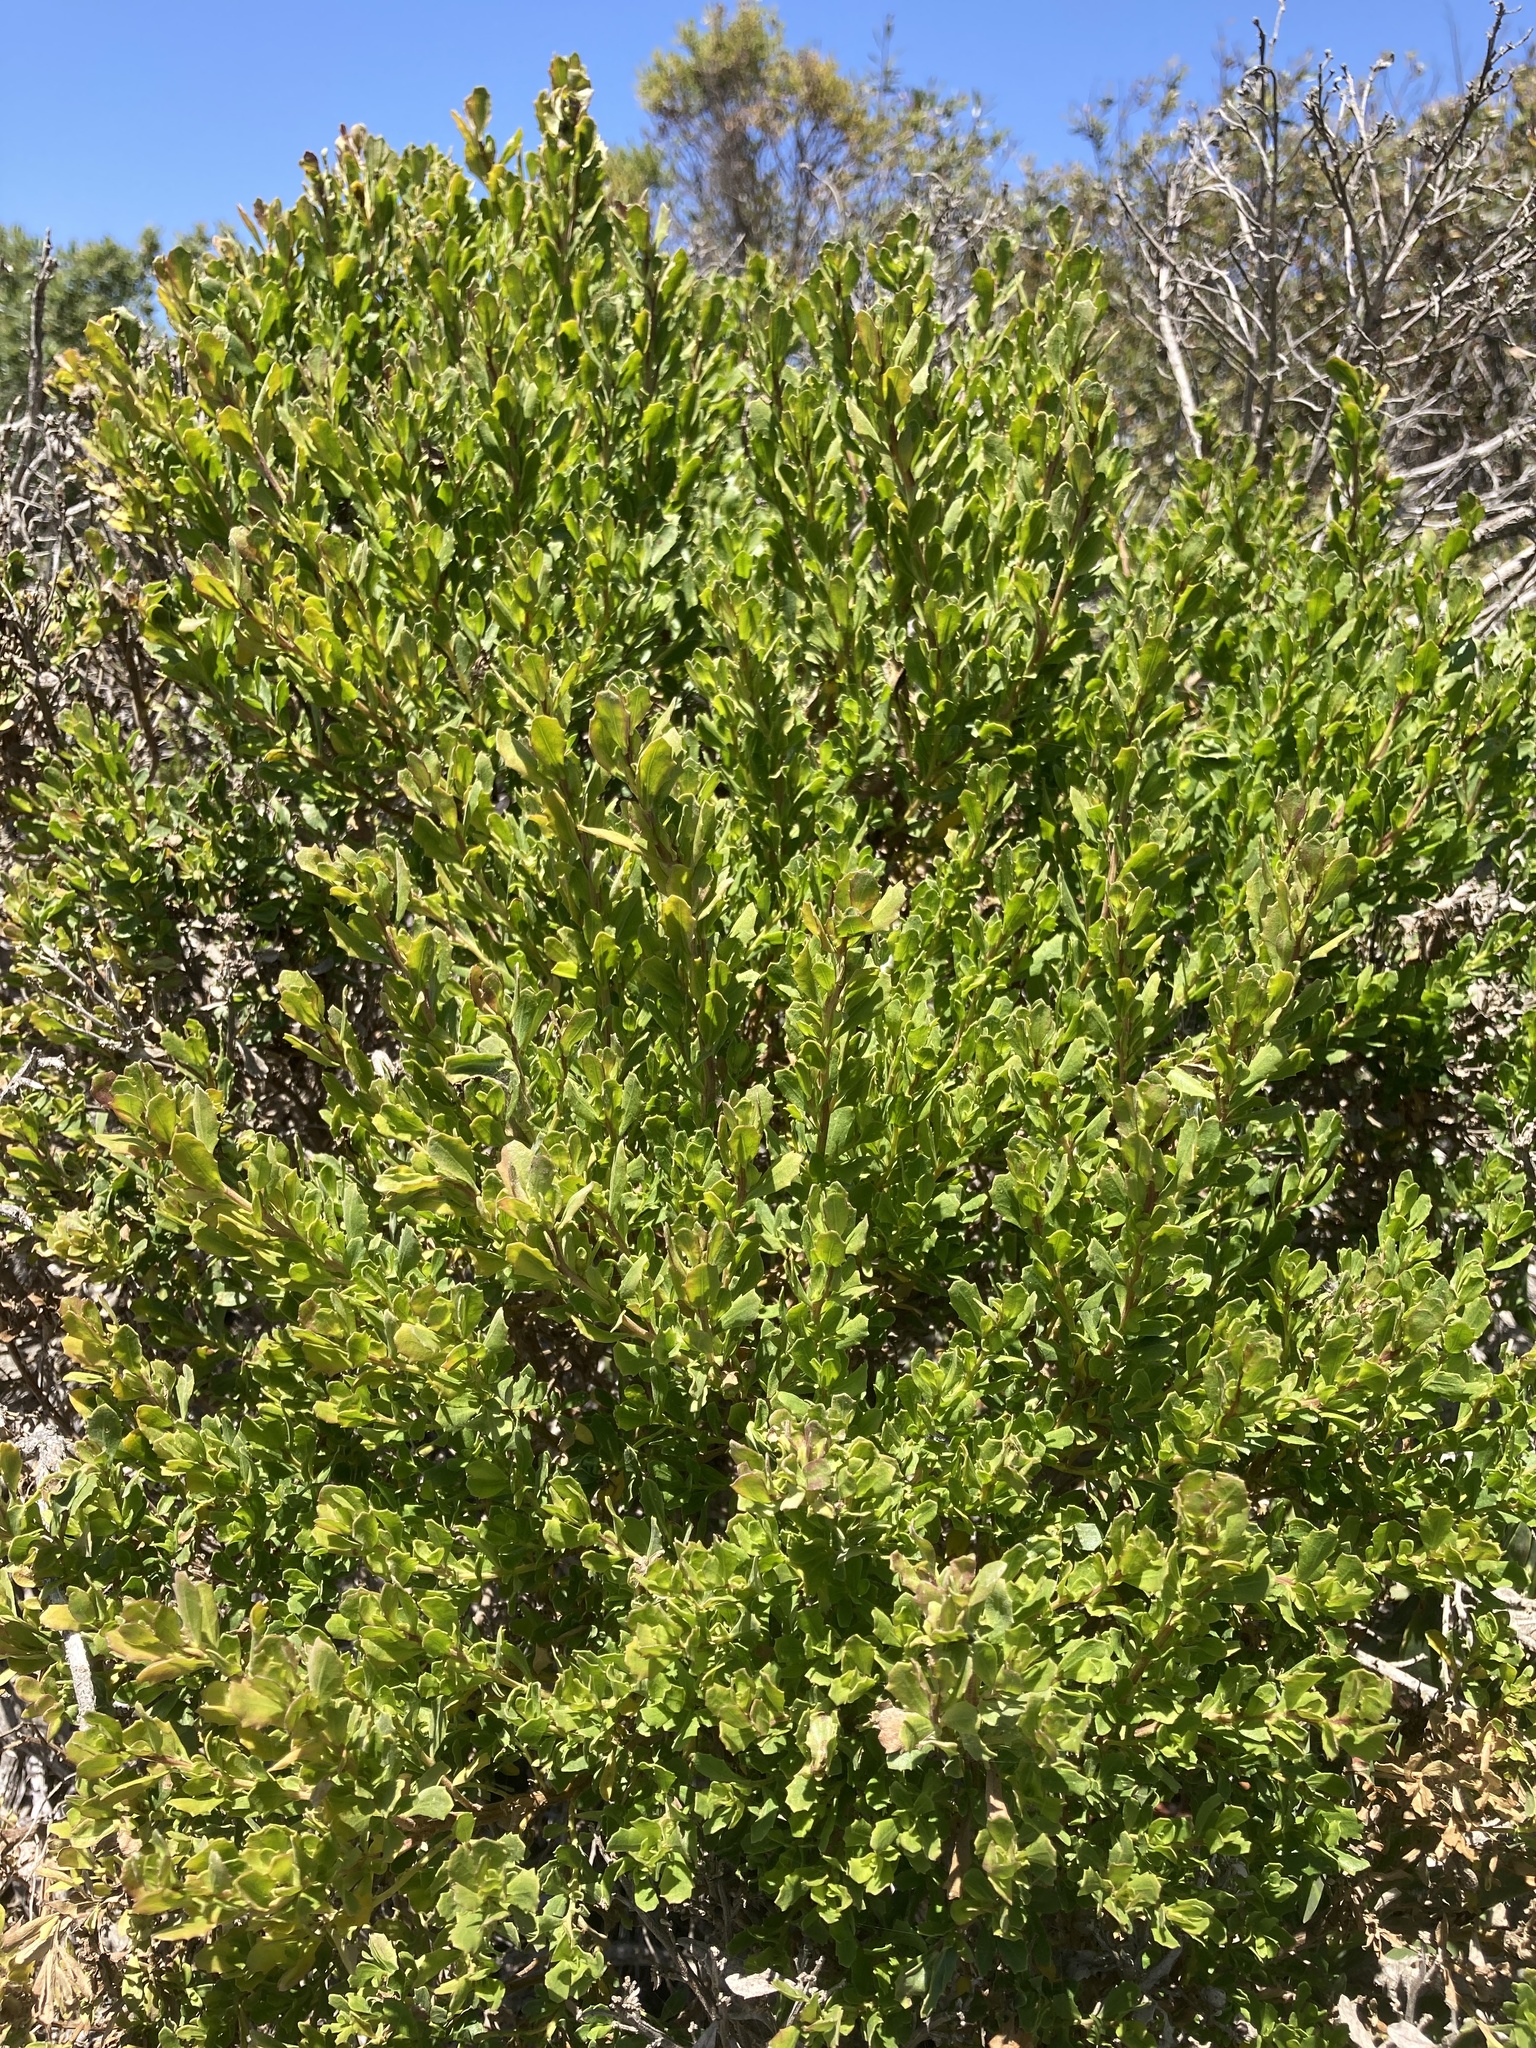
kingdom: Plantae
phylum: Tracheophyta
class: Magnoliopsida
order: Asterales
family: Asteraceae
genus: Baccharis
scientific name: Baccharis pilularis
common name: Coyotebrush
